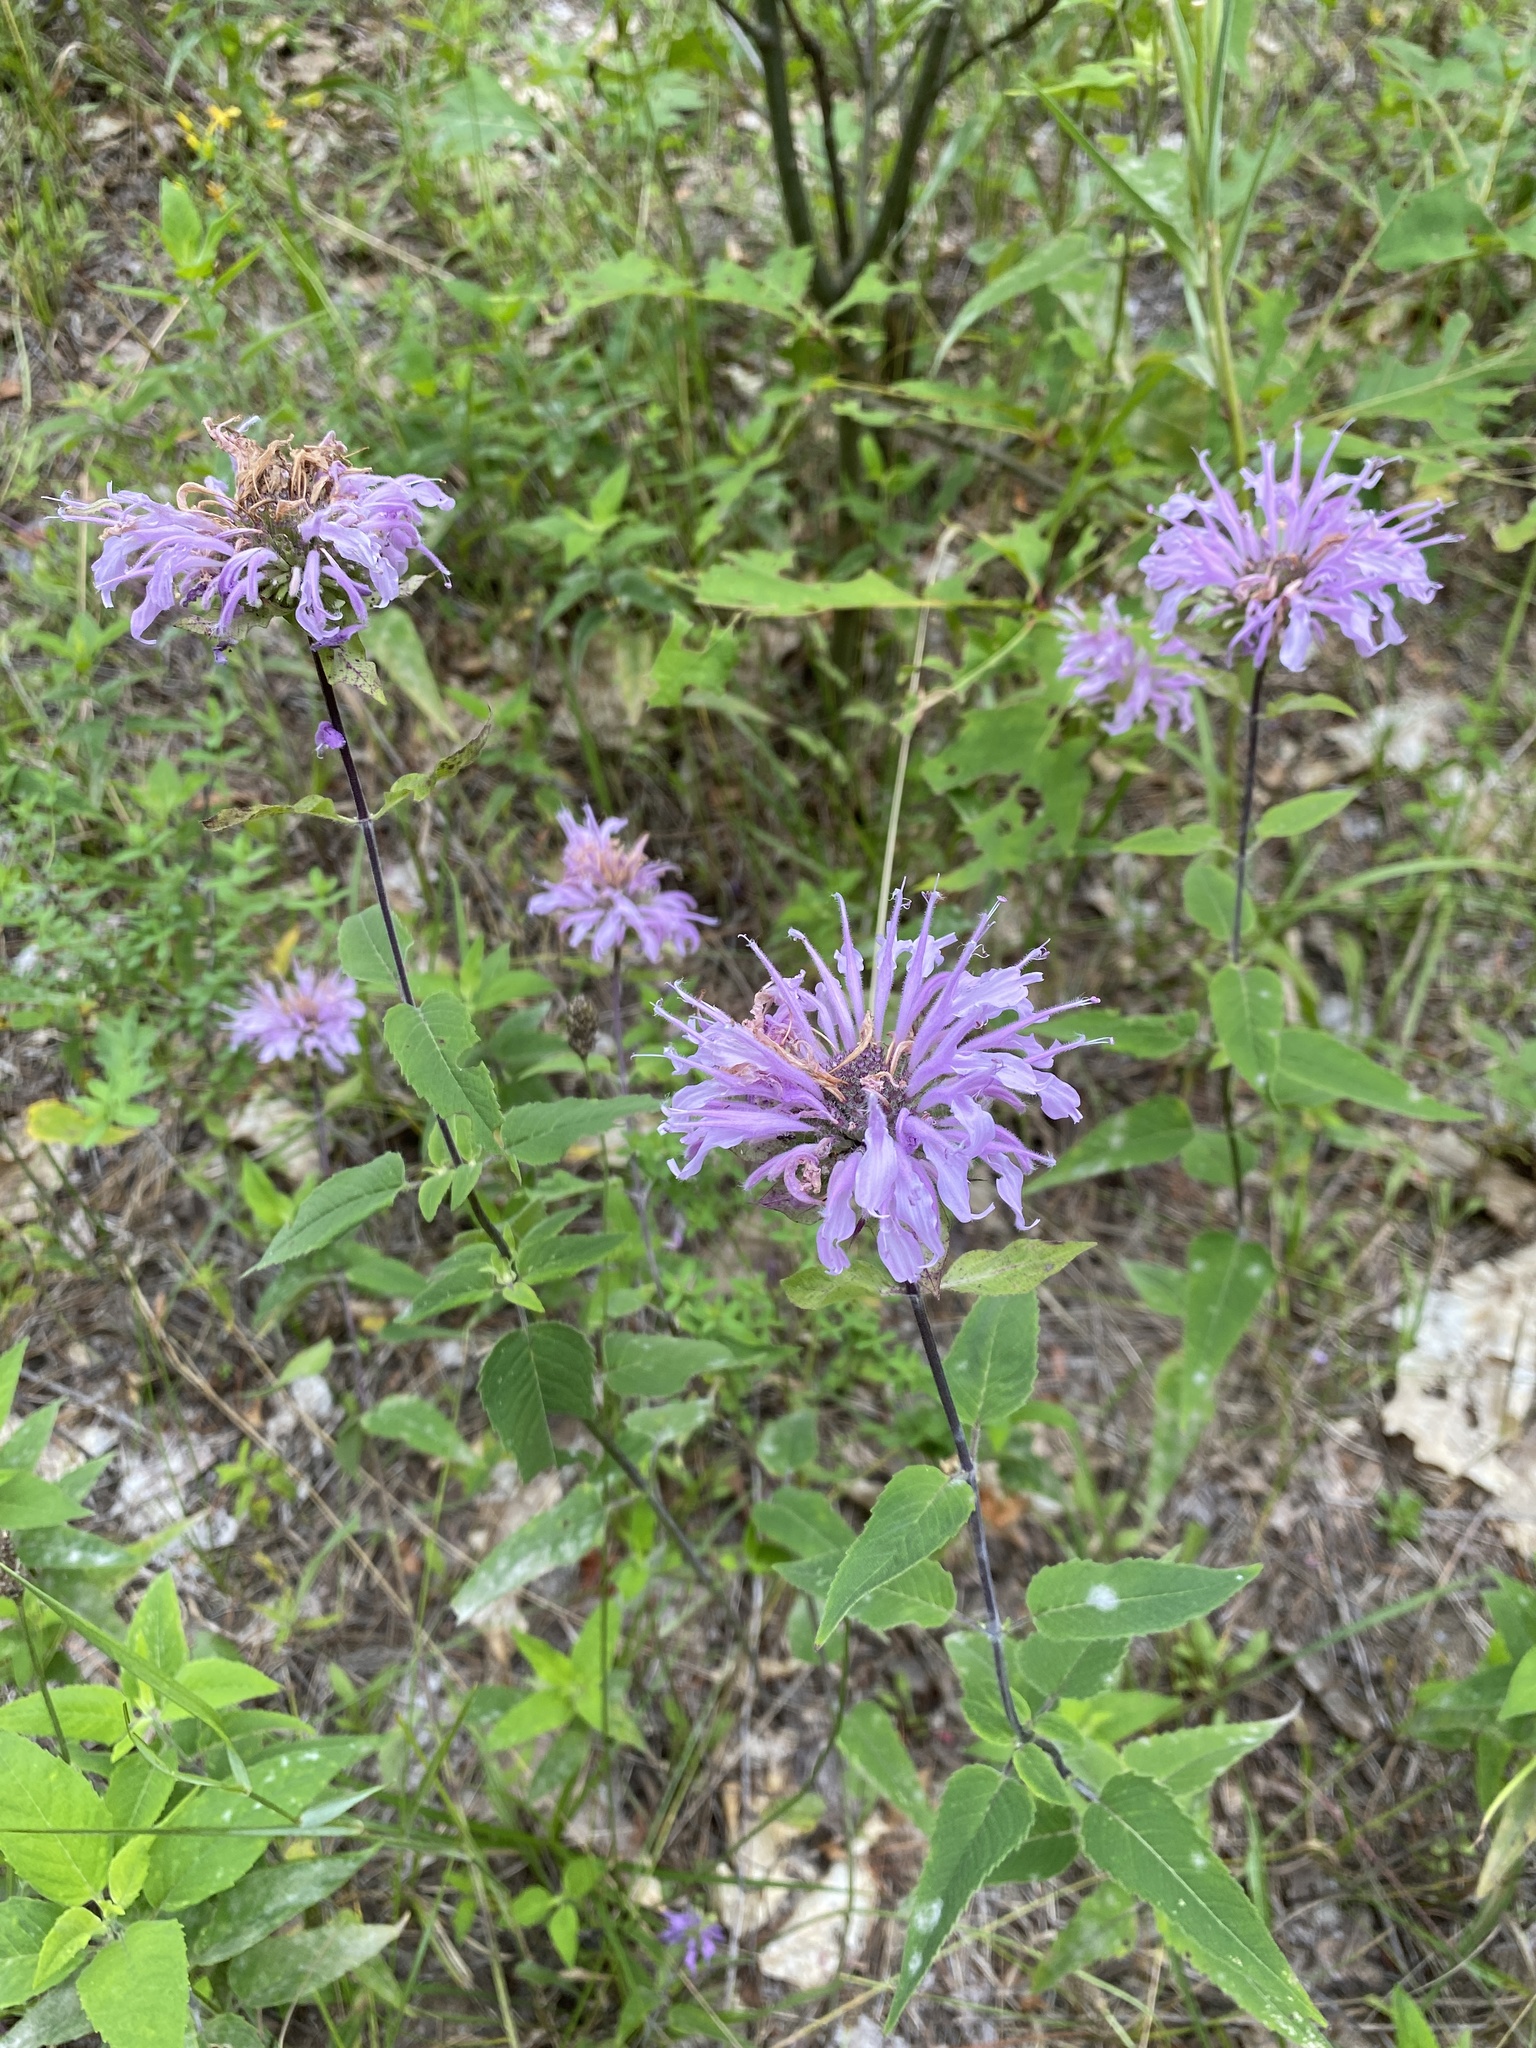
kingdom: Plantae
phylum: Tracheophyta
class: Magnoliopsida
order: Lamiales
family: Lamiaceae
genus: Monarda
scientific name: Monarda fistulosa
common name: Purple beebalm
